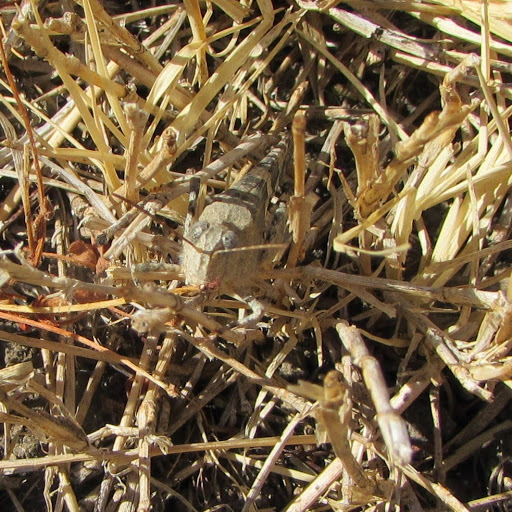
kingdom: Animalia
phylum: Arthropoda
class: Insecta
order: Orthoptera
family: Acrididae
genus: Trimerotropis
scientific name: Trimerotropis pallidipennis
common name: Pallid-winged grasshopper
